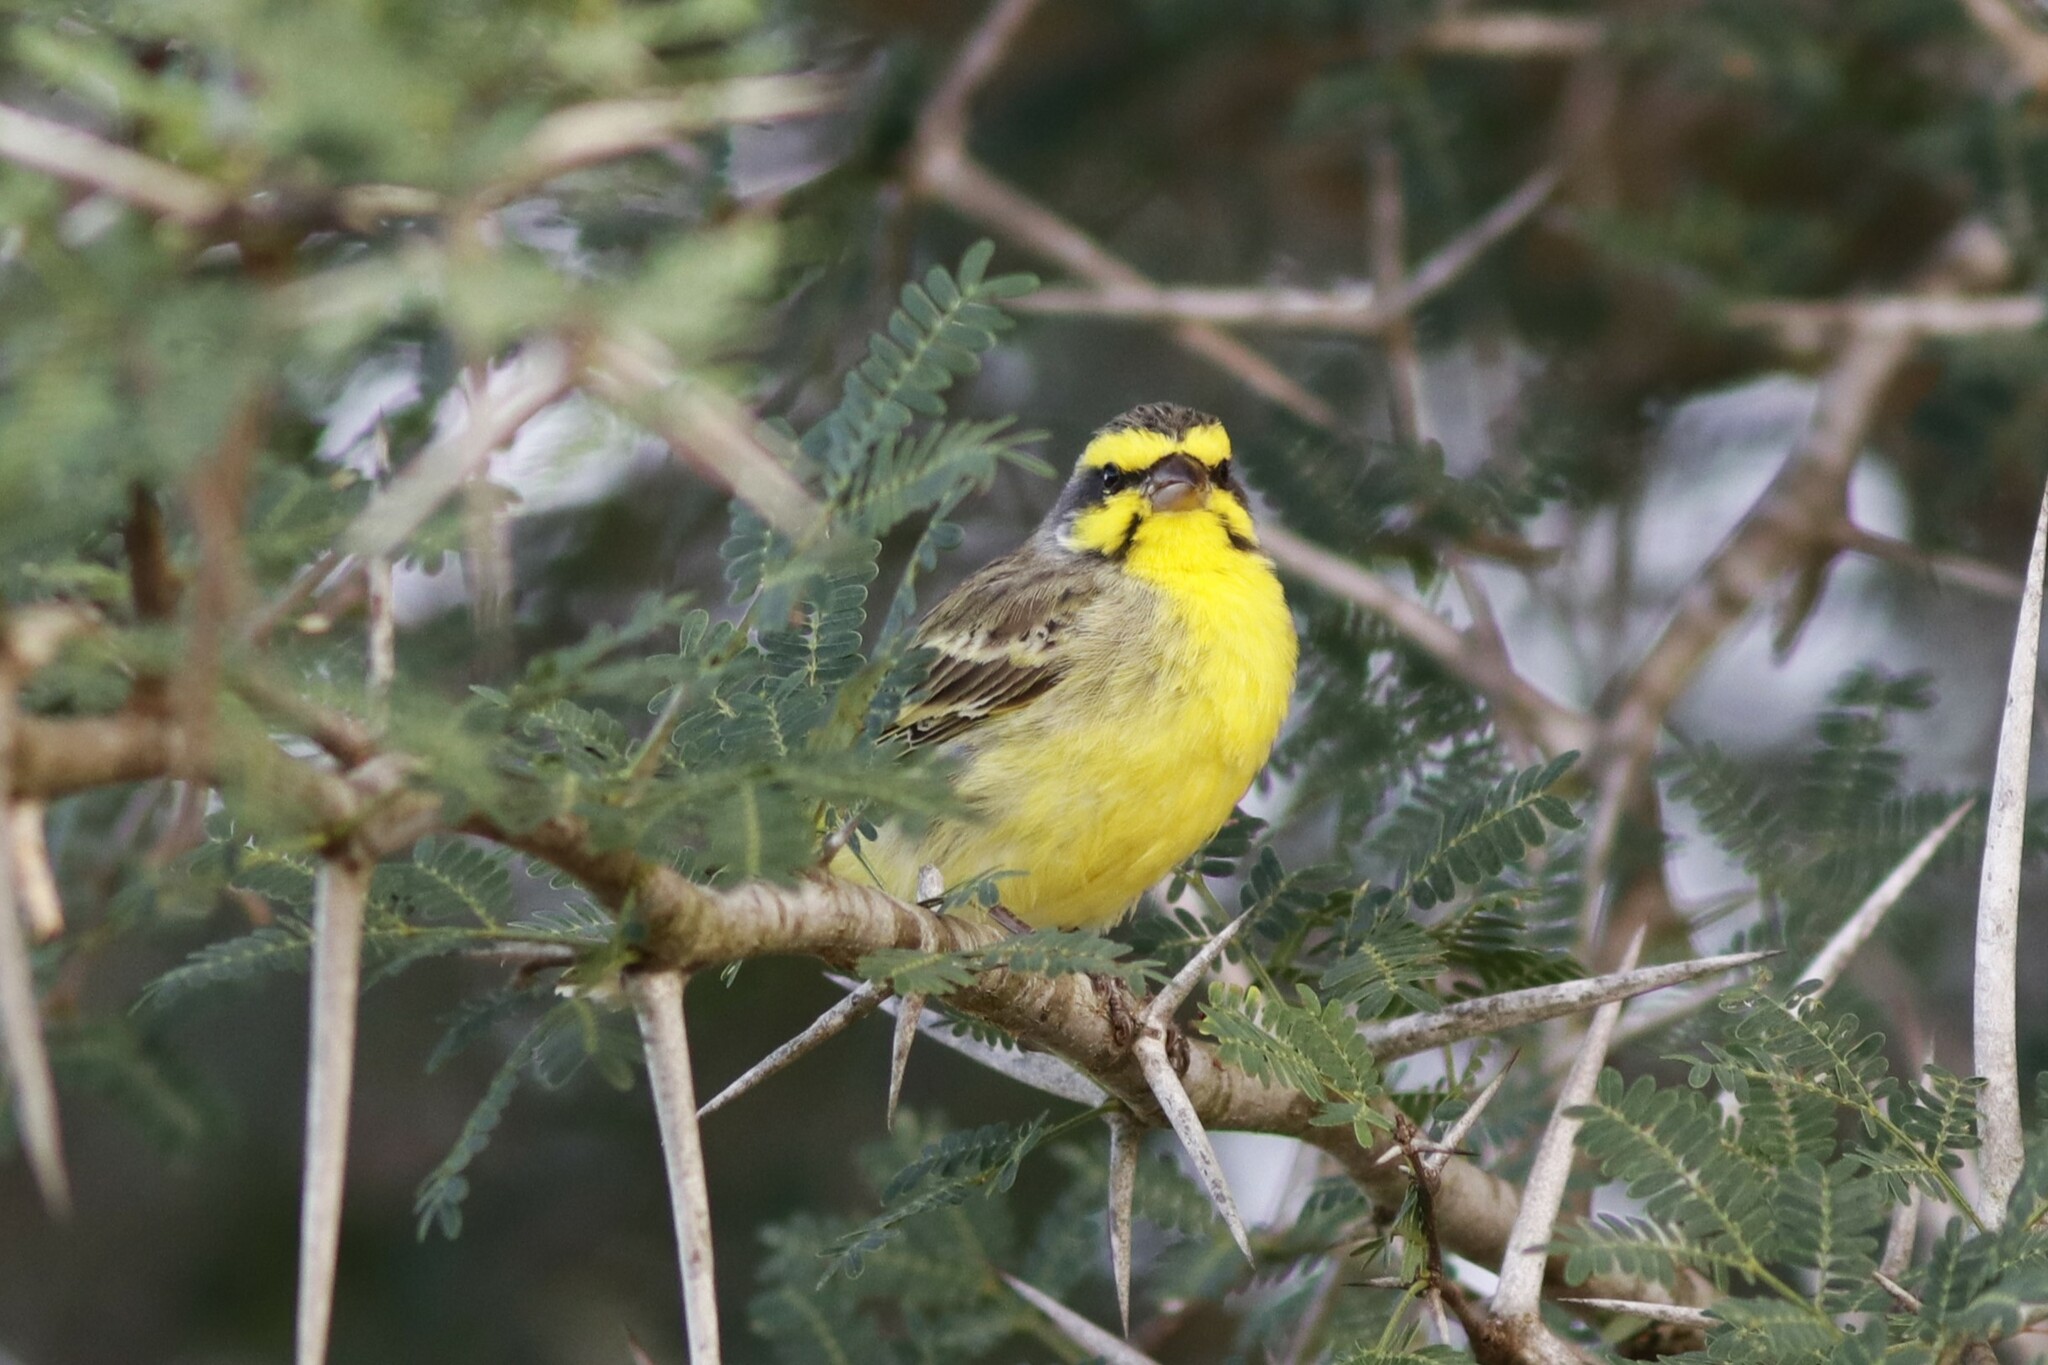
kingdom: Animalia
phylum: Chordata
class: Aves
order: Passeriformes
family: Fringillidae
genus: Crithagra
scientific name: Crithagra mozambica
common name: Yellow-fronted canary
